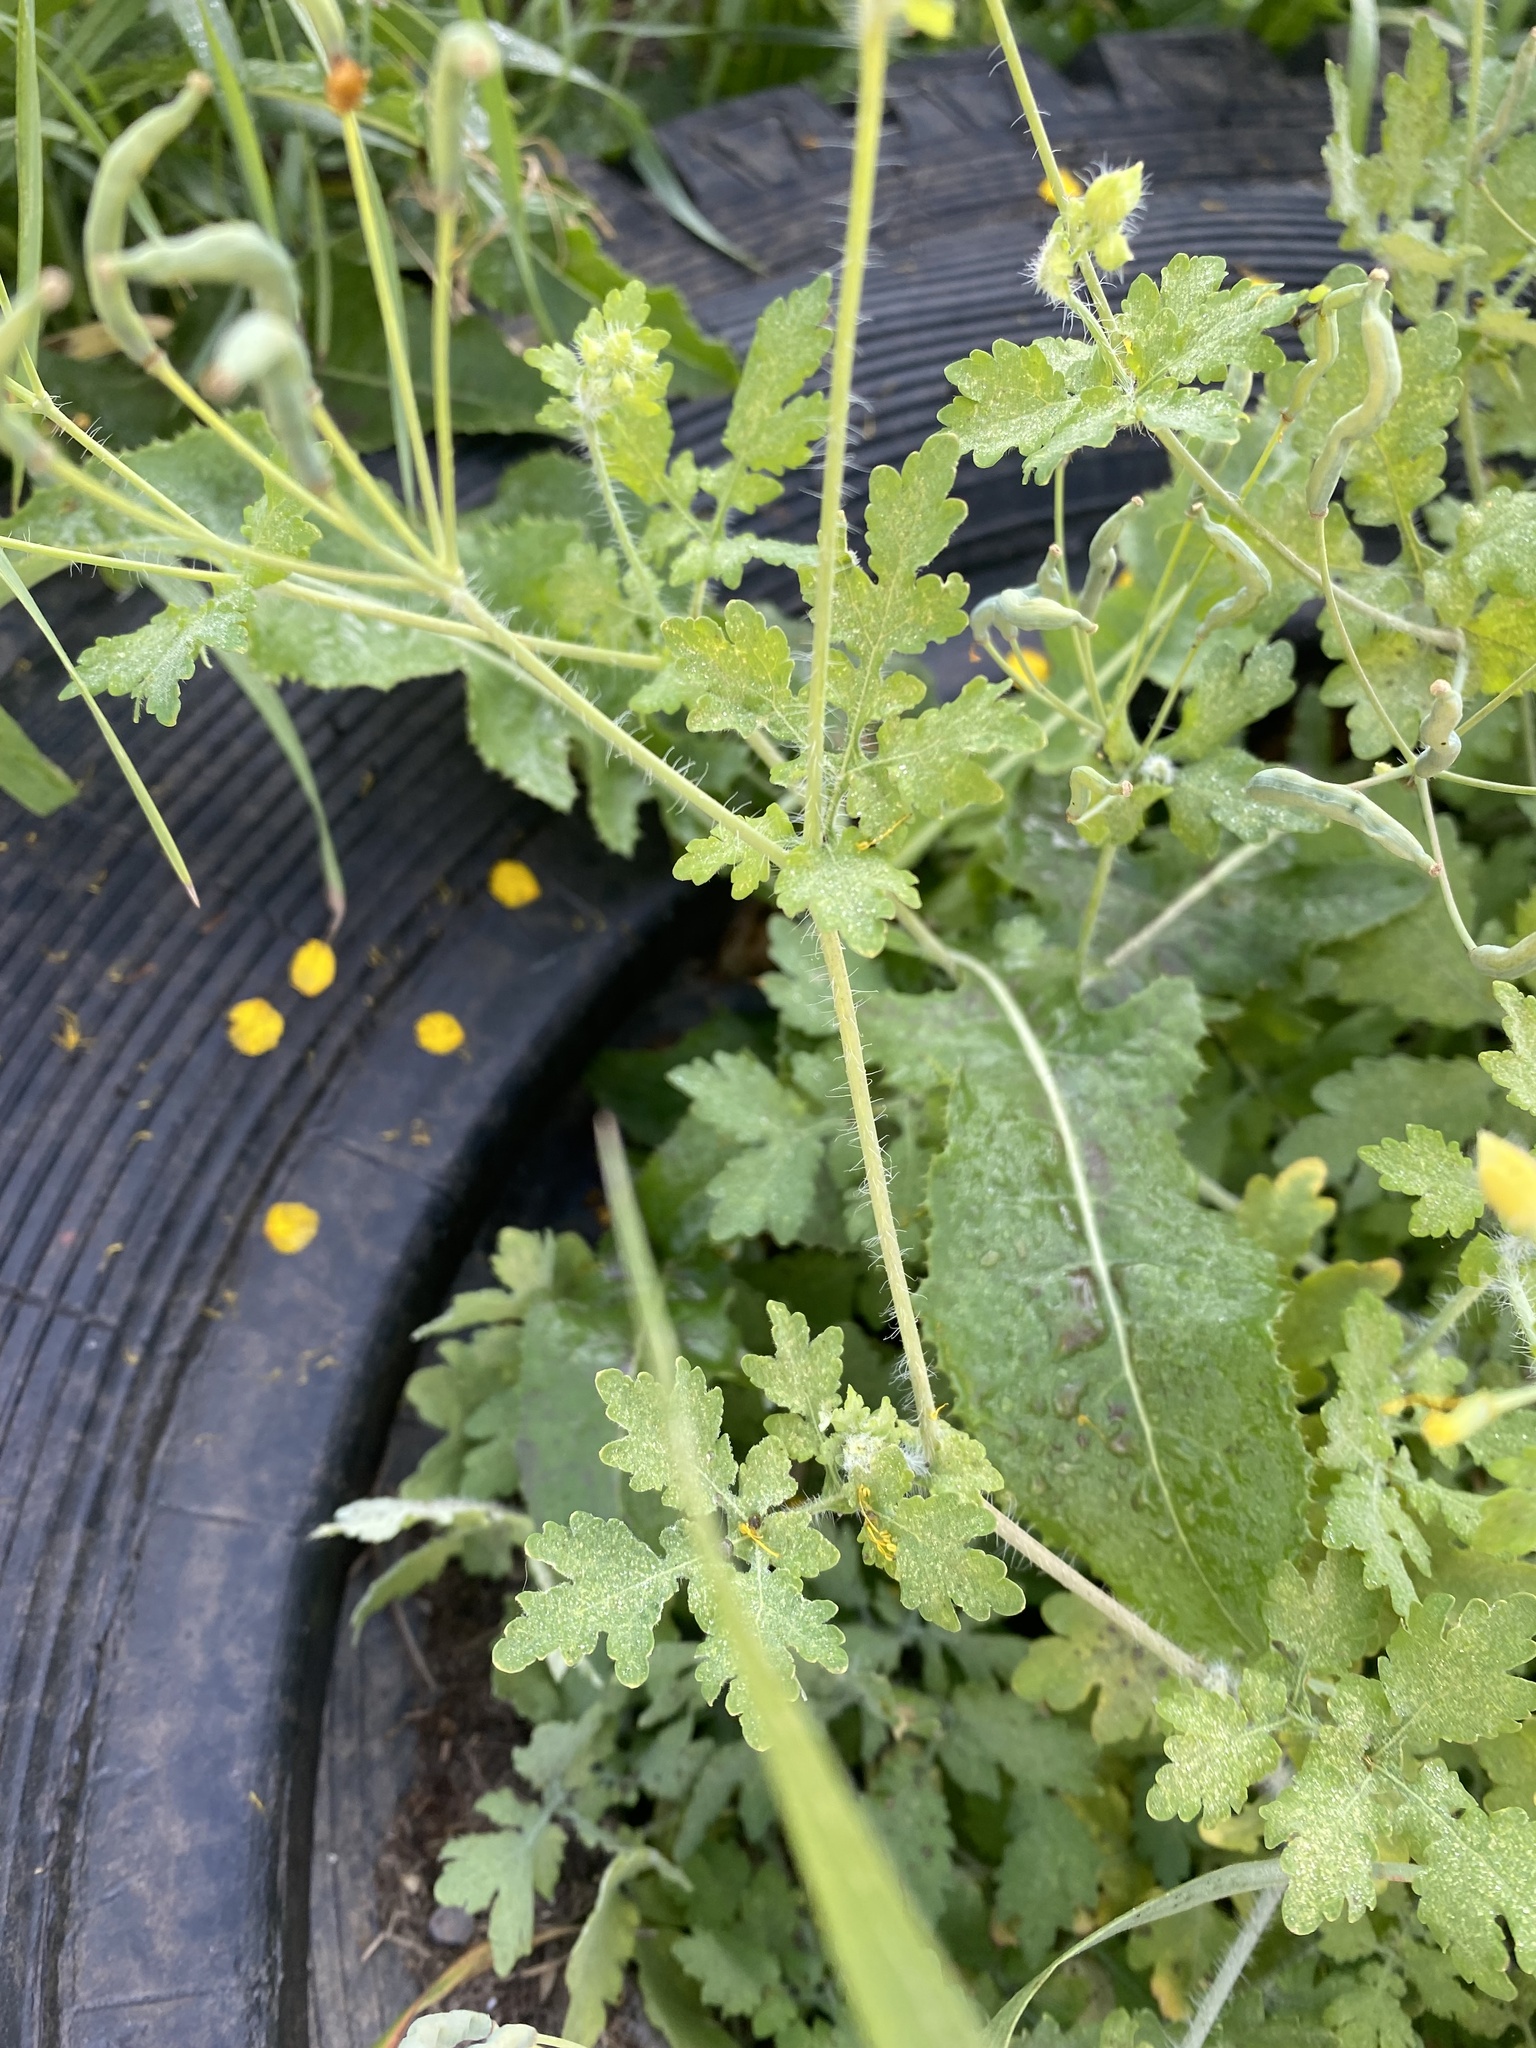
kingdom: Plantae
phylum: Tracheophyta
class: Magnoliopsida
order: Ranunculales
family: Papaveraceae
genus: Chelidonium
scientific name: Chelidonium majus
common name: Greater celandine
